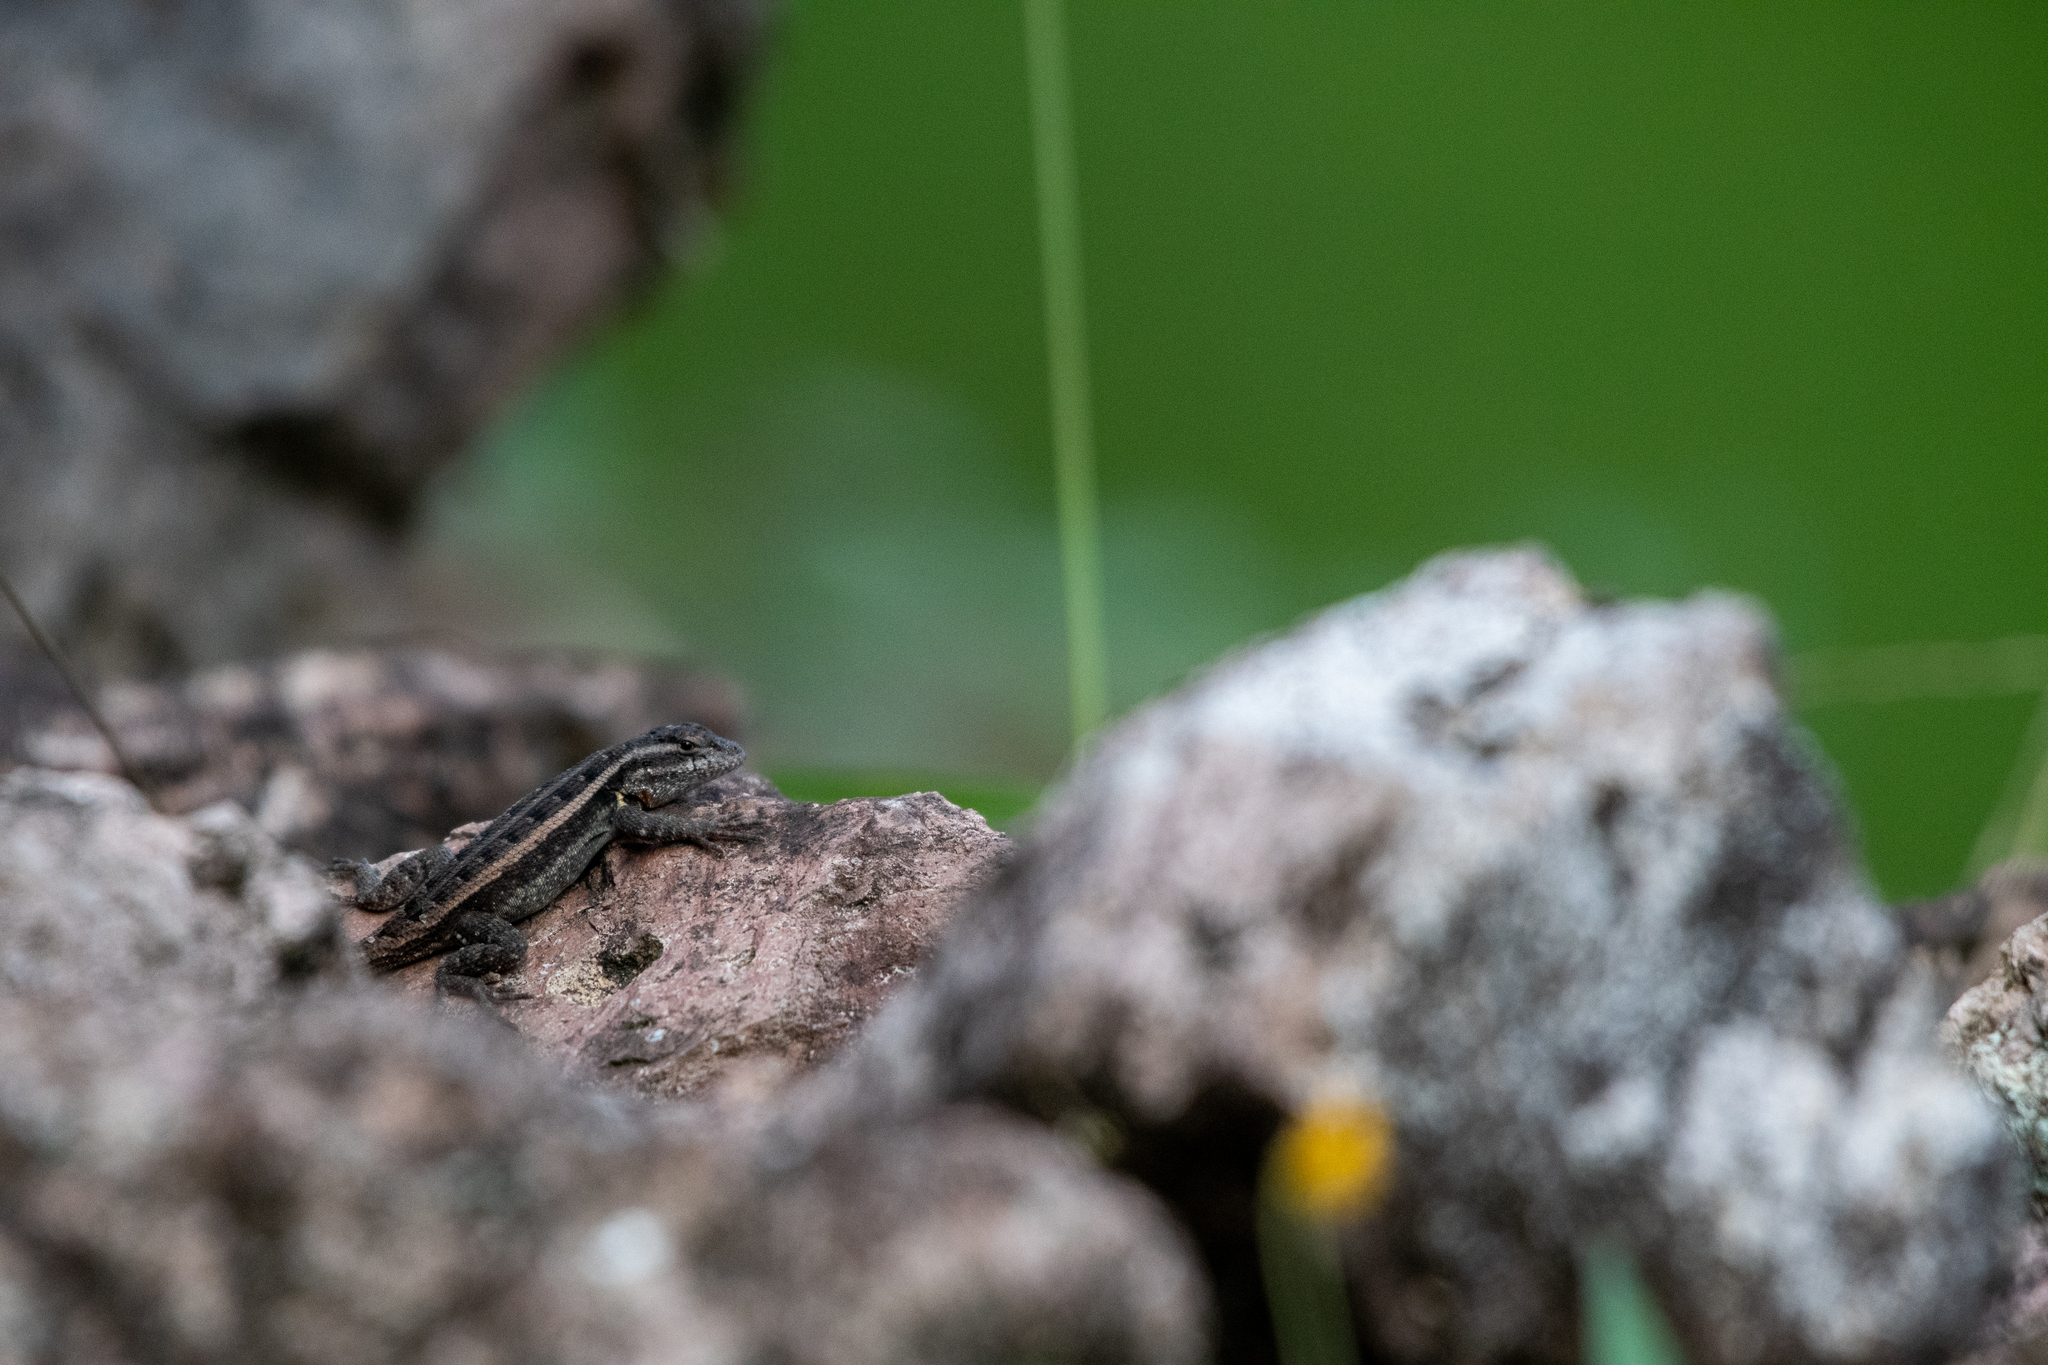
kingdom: Animalia
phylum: Chordata
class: Squamata
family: Phrynosomatidae
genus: Sceloporus
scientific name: Sceloporus variabilis
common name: Rosebelly lizard
